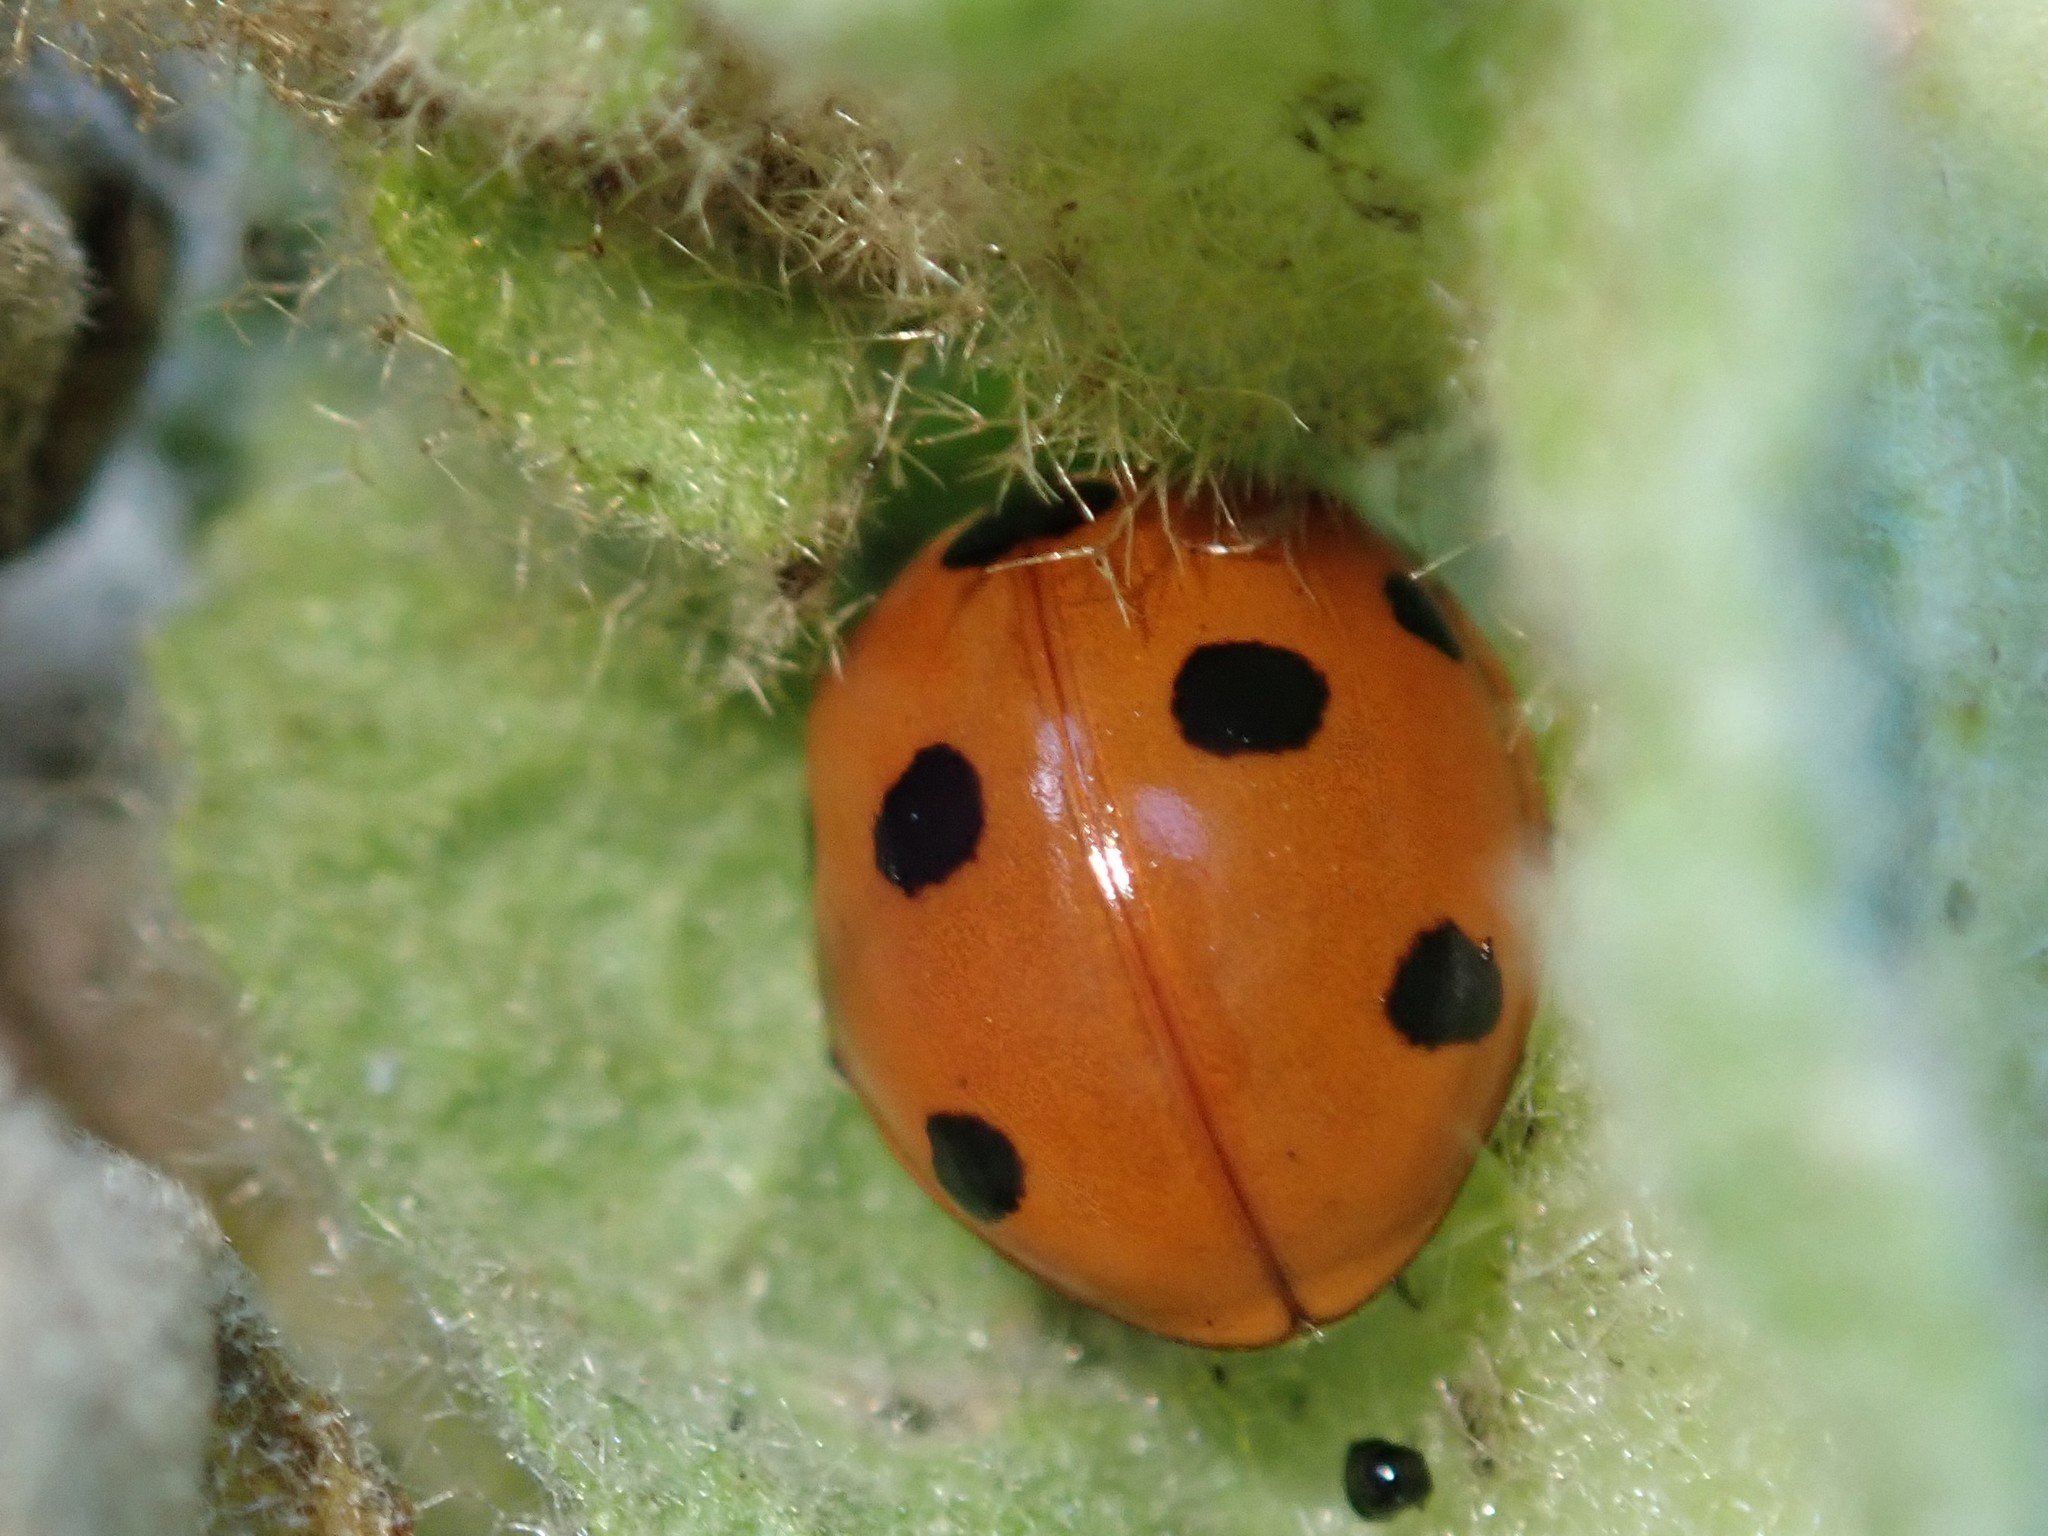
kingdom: Animalia
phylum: Arthropoda
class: Insecta
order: Coleoptera
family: Coccinellidae
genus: Coccinella
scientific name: Coccinella septempunctata
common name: Sevenspotted lady beetle
